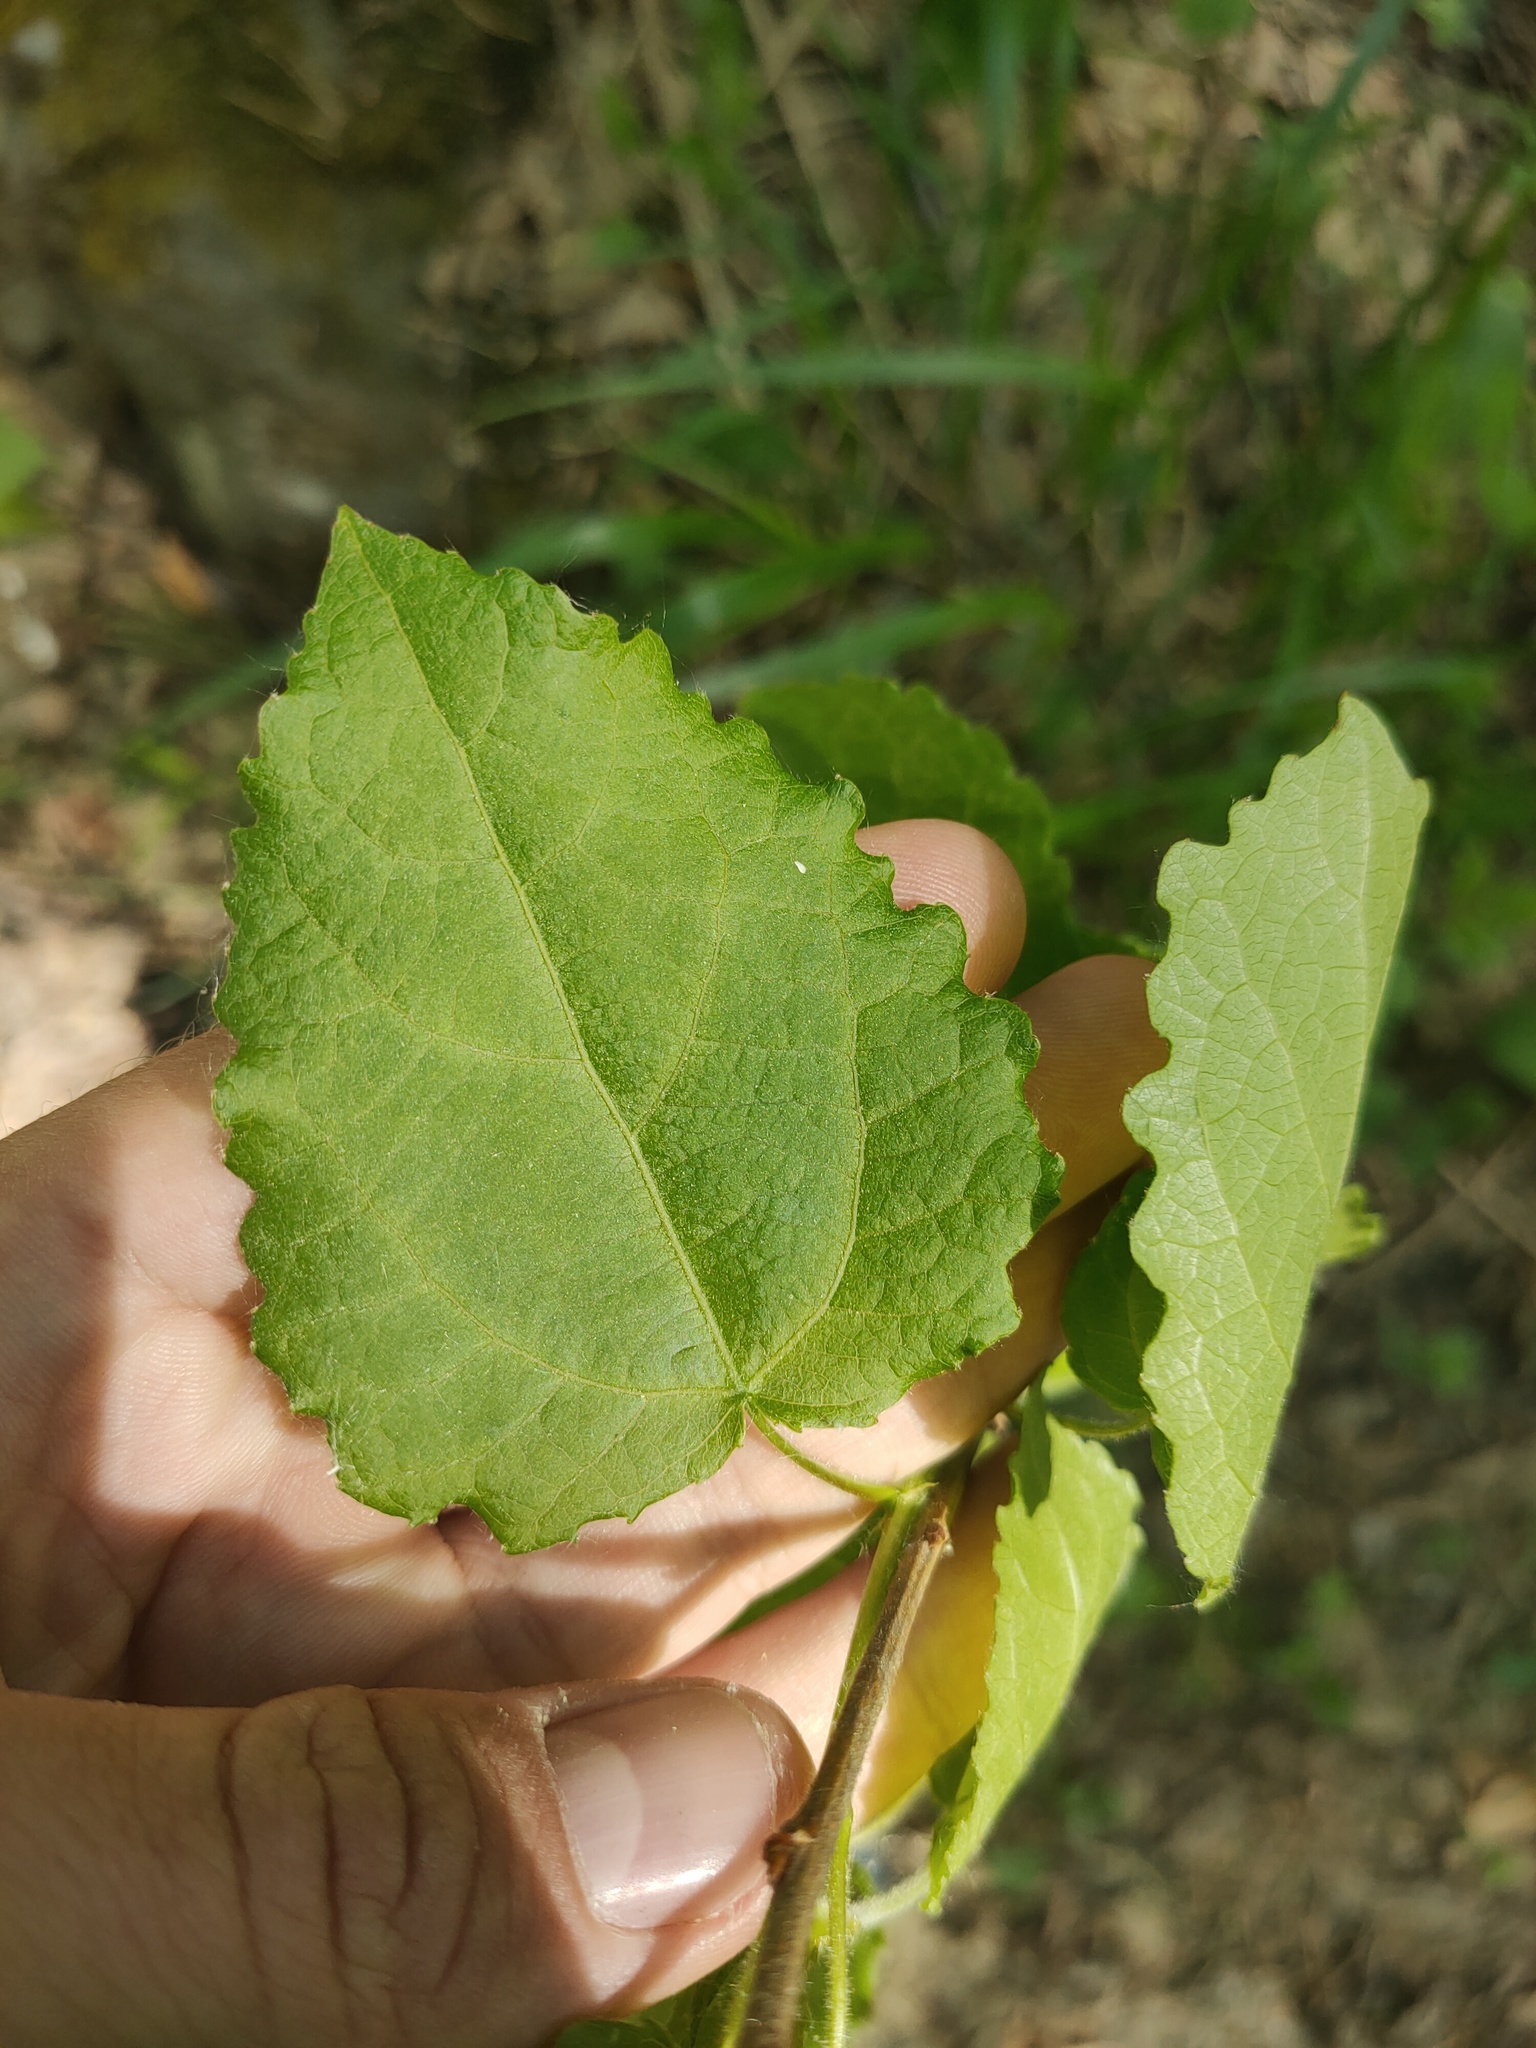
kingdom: Plantae
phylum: Tracheophyta
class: Magnoliopsida
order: Malpighiales
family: Salicaceae
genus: Populus
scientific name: Populus tremula
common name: European aspen
